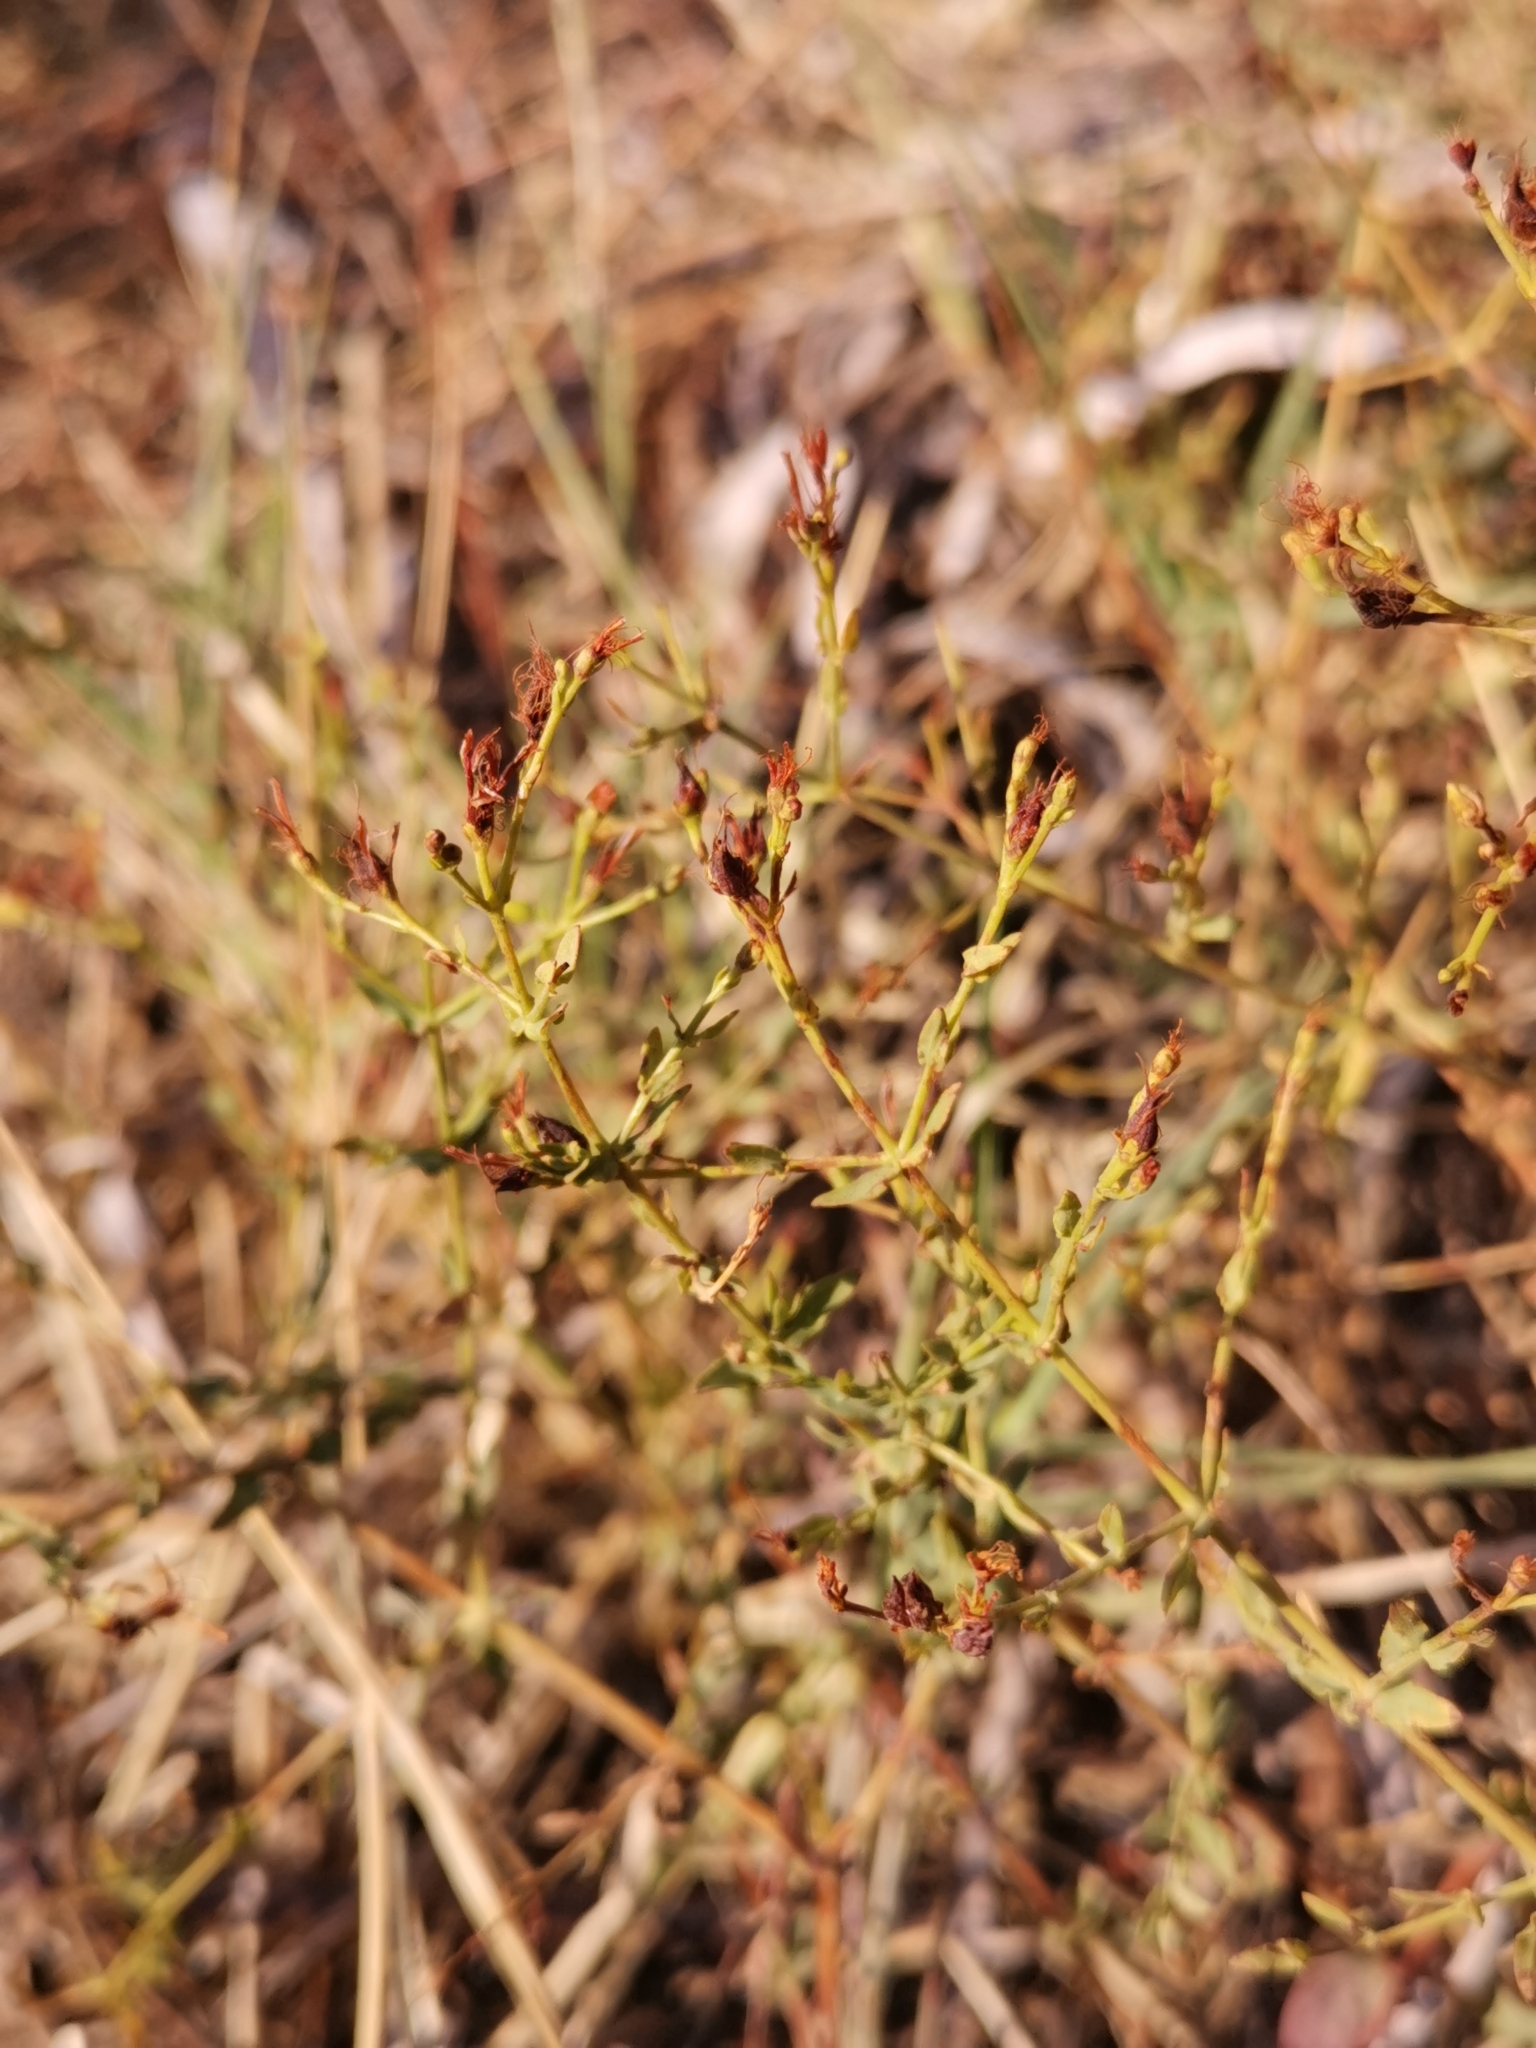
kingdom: Plantae
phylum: Tracheophyta
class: Magnoliopsida
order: Malpighiales
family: Hypericaceae
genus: Hypericum
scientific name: Hypericum triquetrifolium
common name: Tangled hypericum
